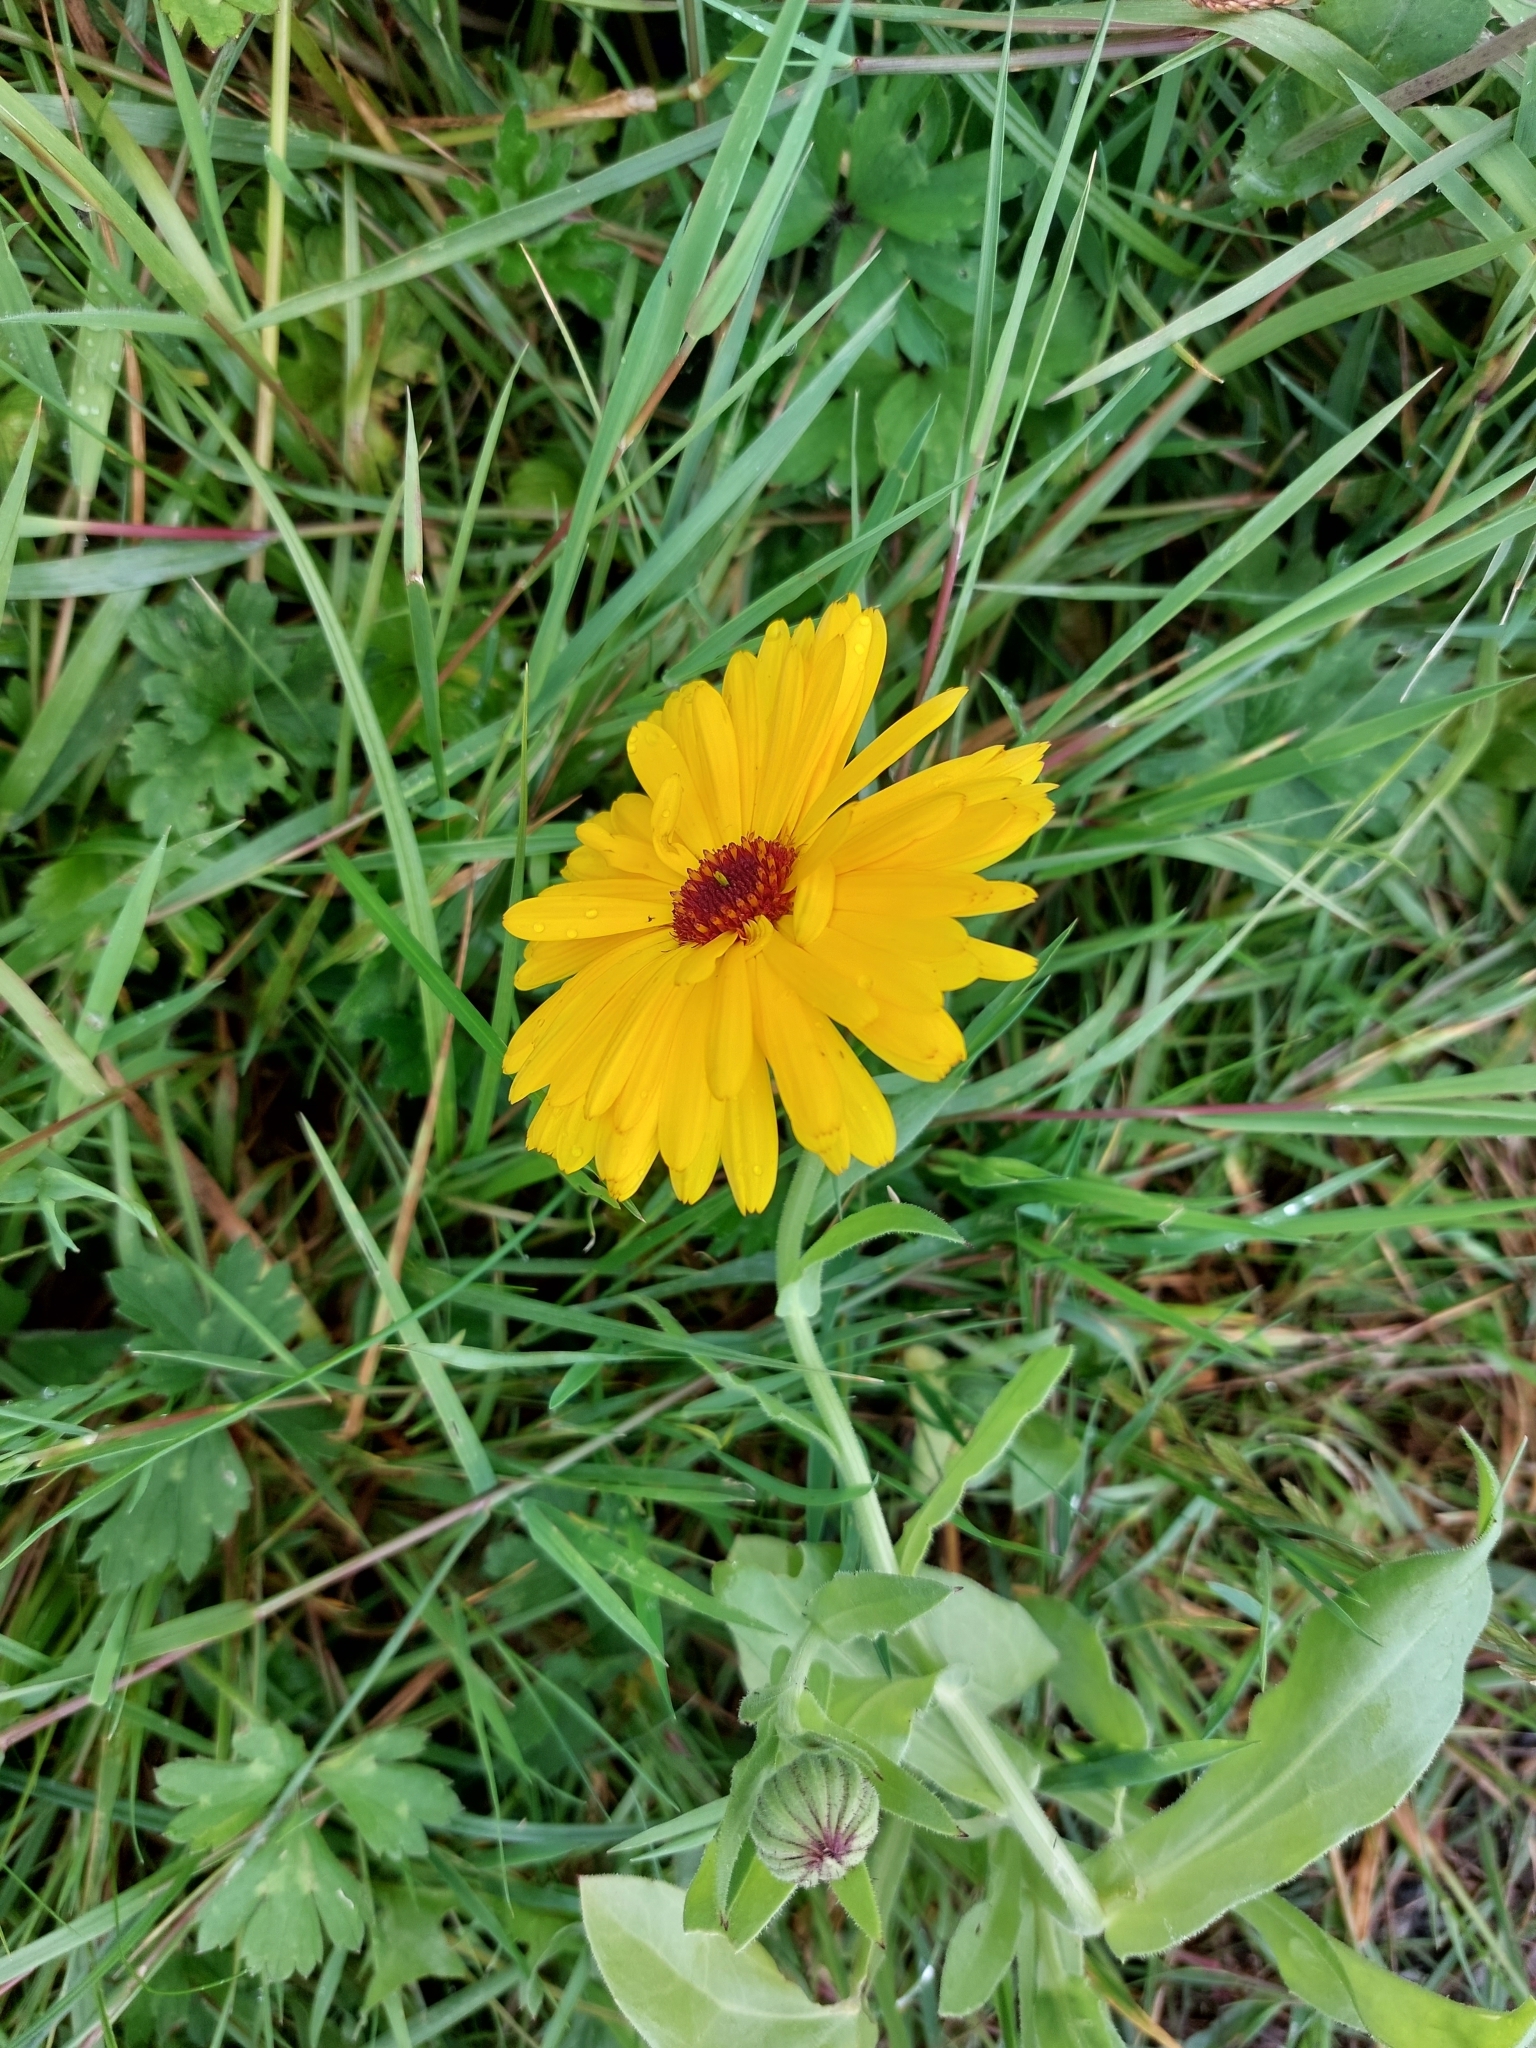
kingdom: Plantae
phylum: Tracheophyta
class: Magnoliopsida
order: Asterales
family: Asteraceae
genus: Calendula
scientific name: Calendula officinalis
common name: Pot marigold
